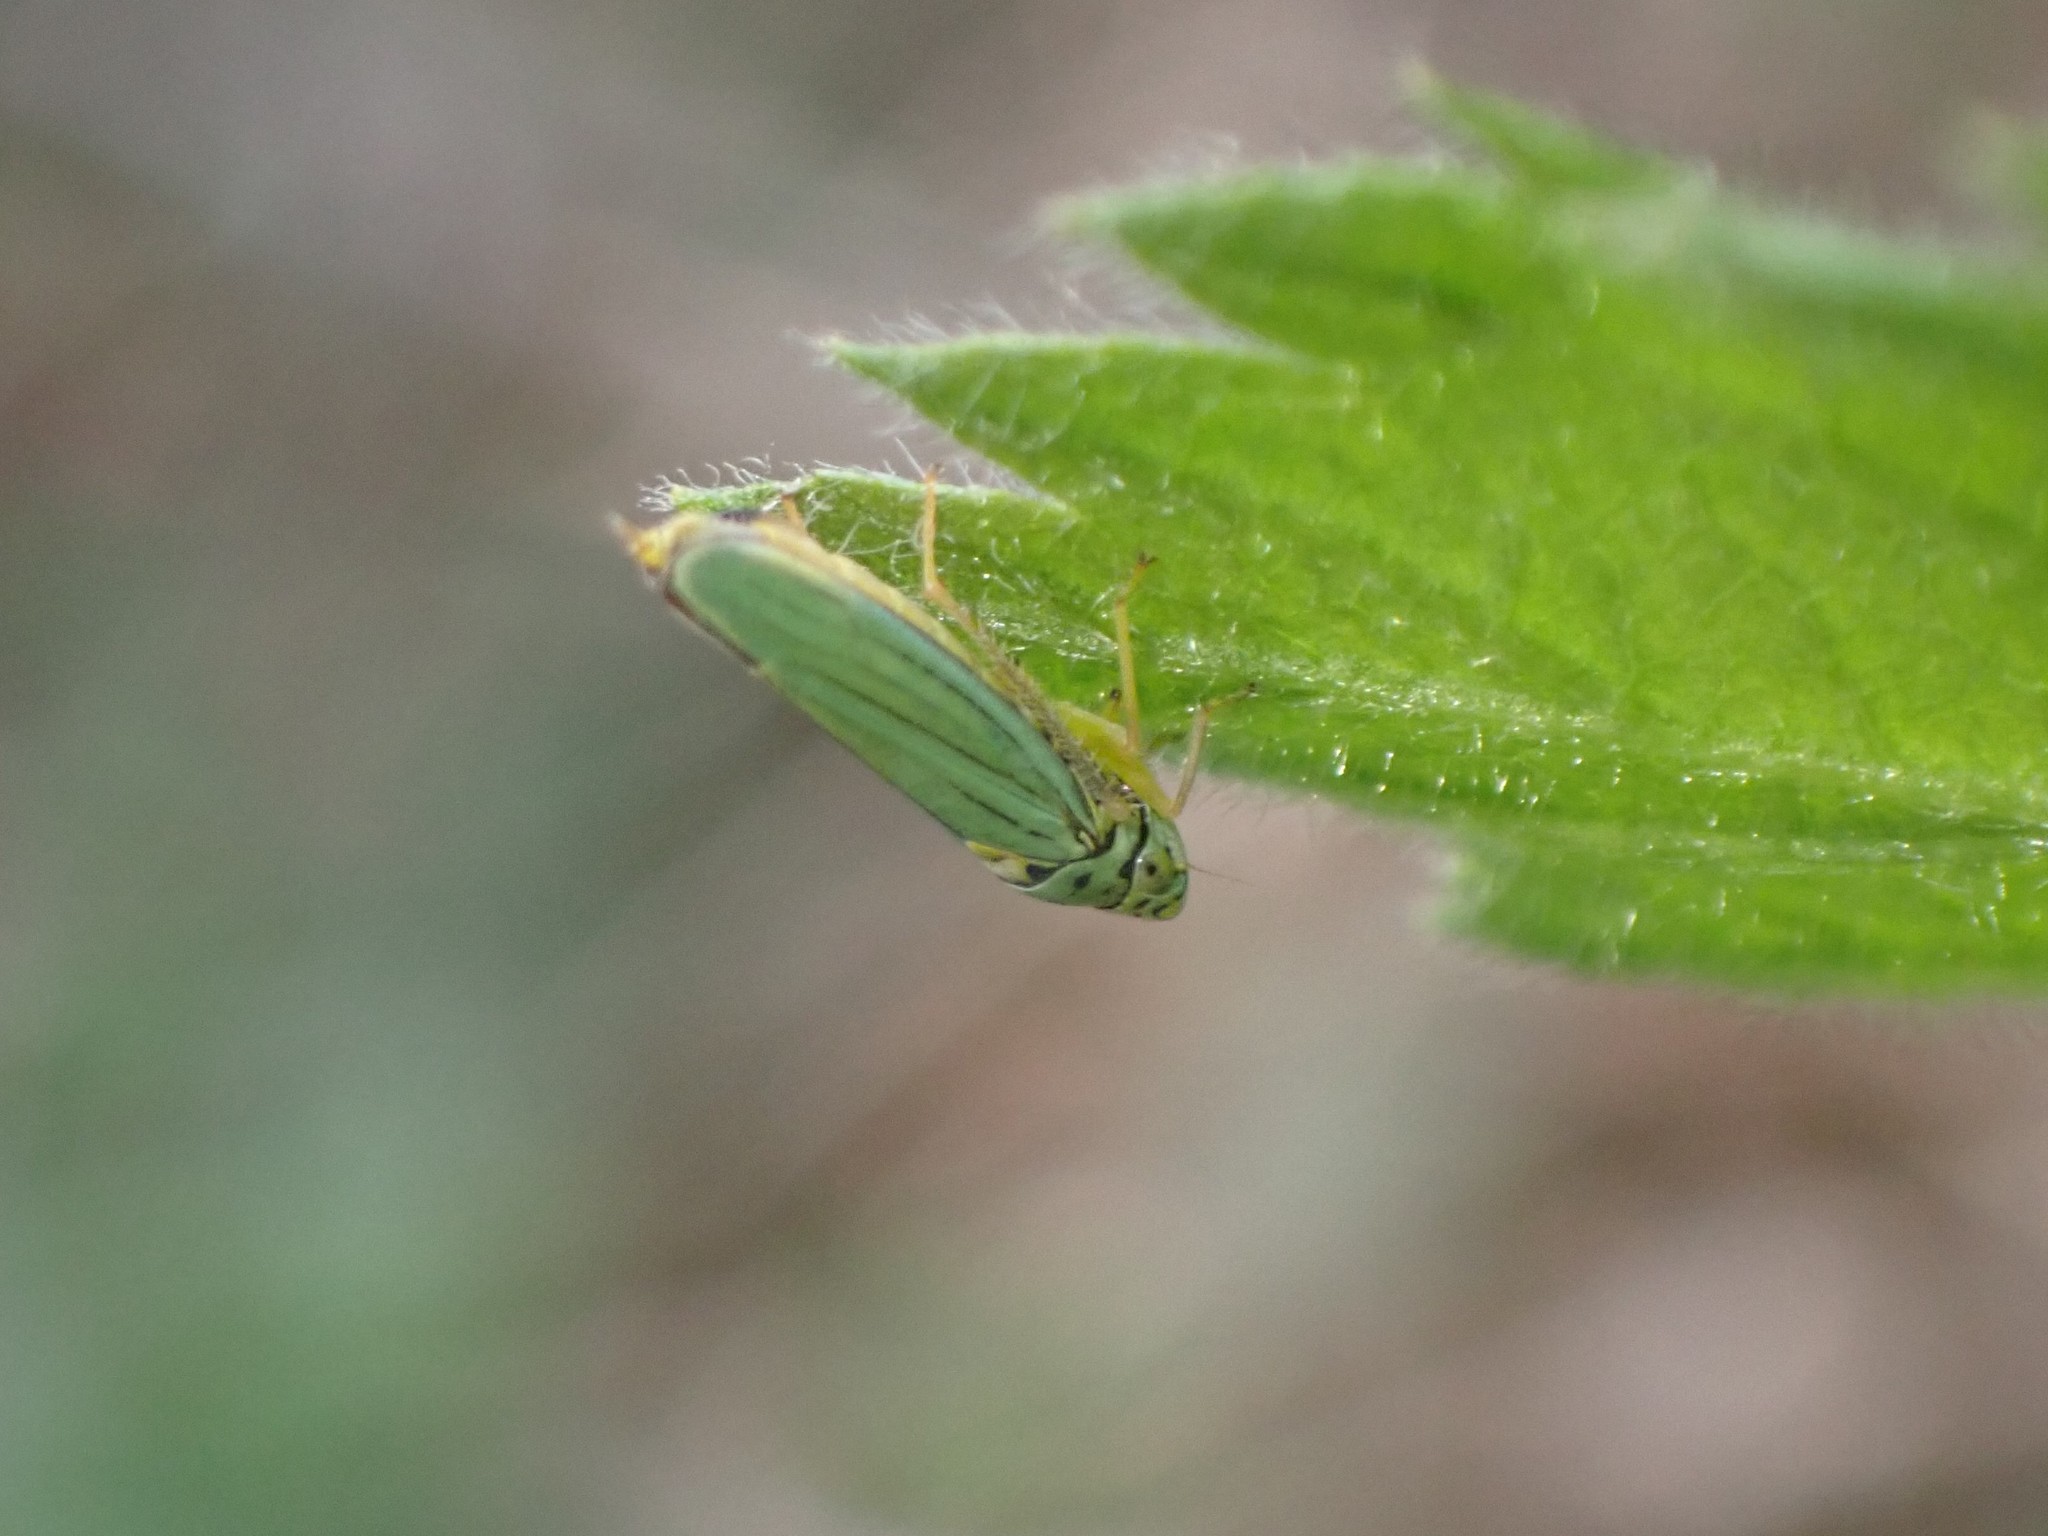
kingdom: Animalia
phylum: Arthropoda
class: Insecta
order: Hemiptera
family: Cicadellidae
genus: Graphocephala
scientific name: Graphocephala atropunctata
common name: Blue-green sharpshooter
